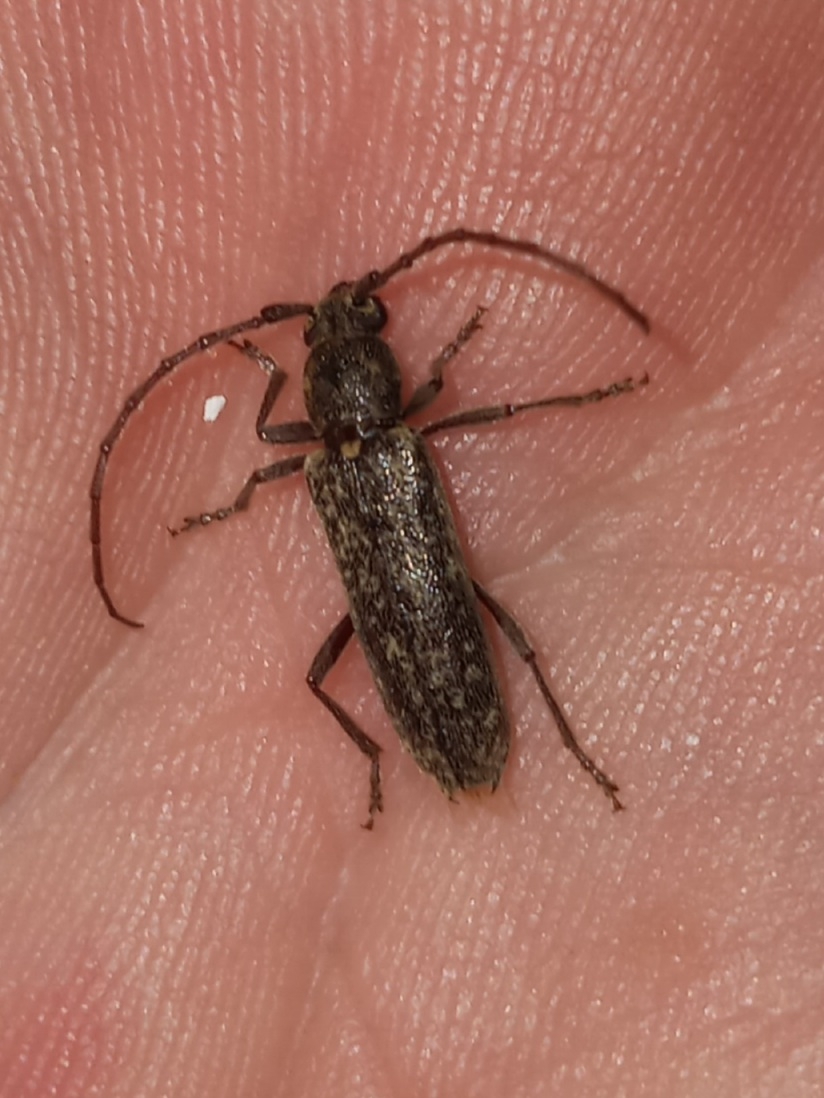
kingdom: Animalia
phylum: Arthropoda
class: Insecta
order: Coleoptera
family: Cerambycidae
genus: Anelaphus
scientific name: Anelaphus villosus
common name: Twig pruner
